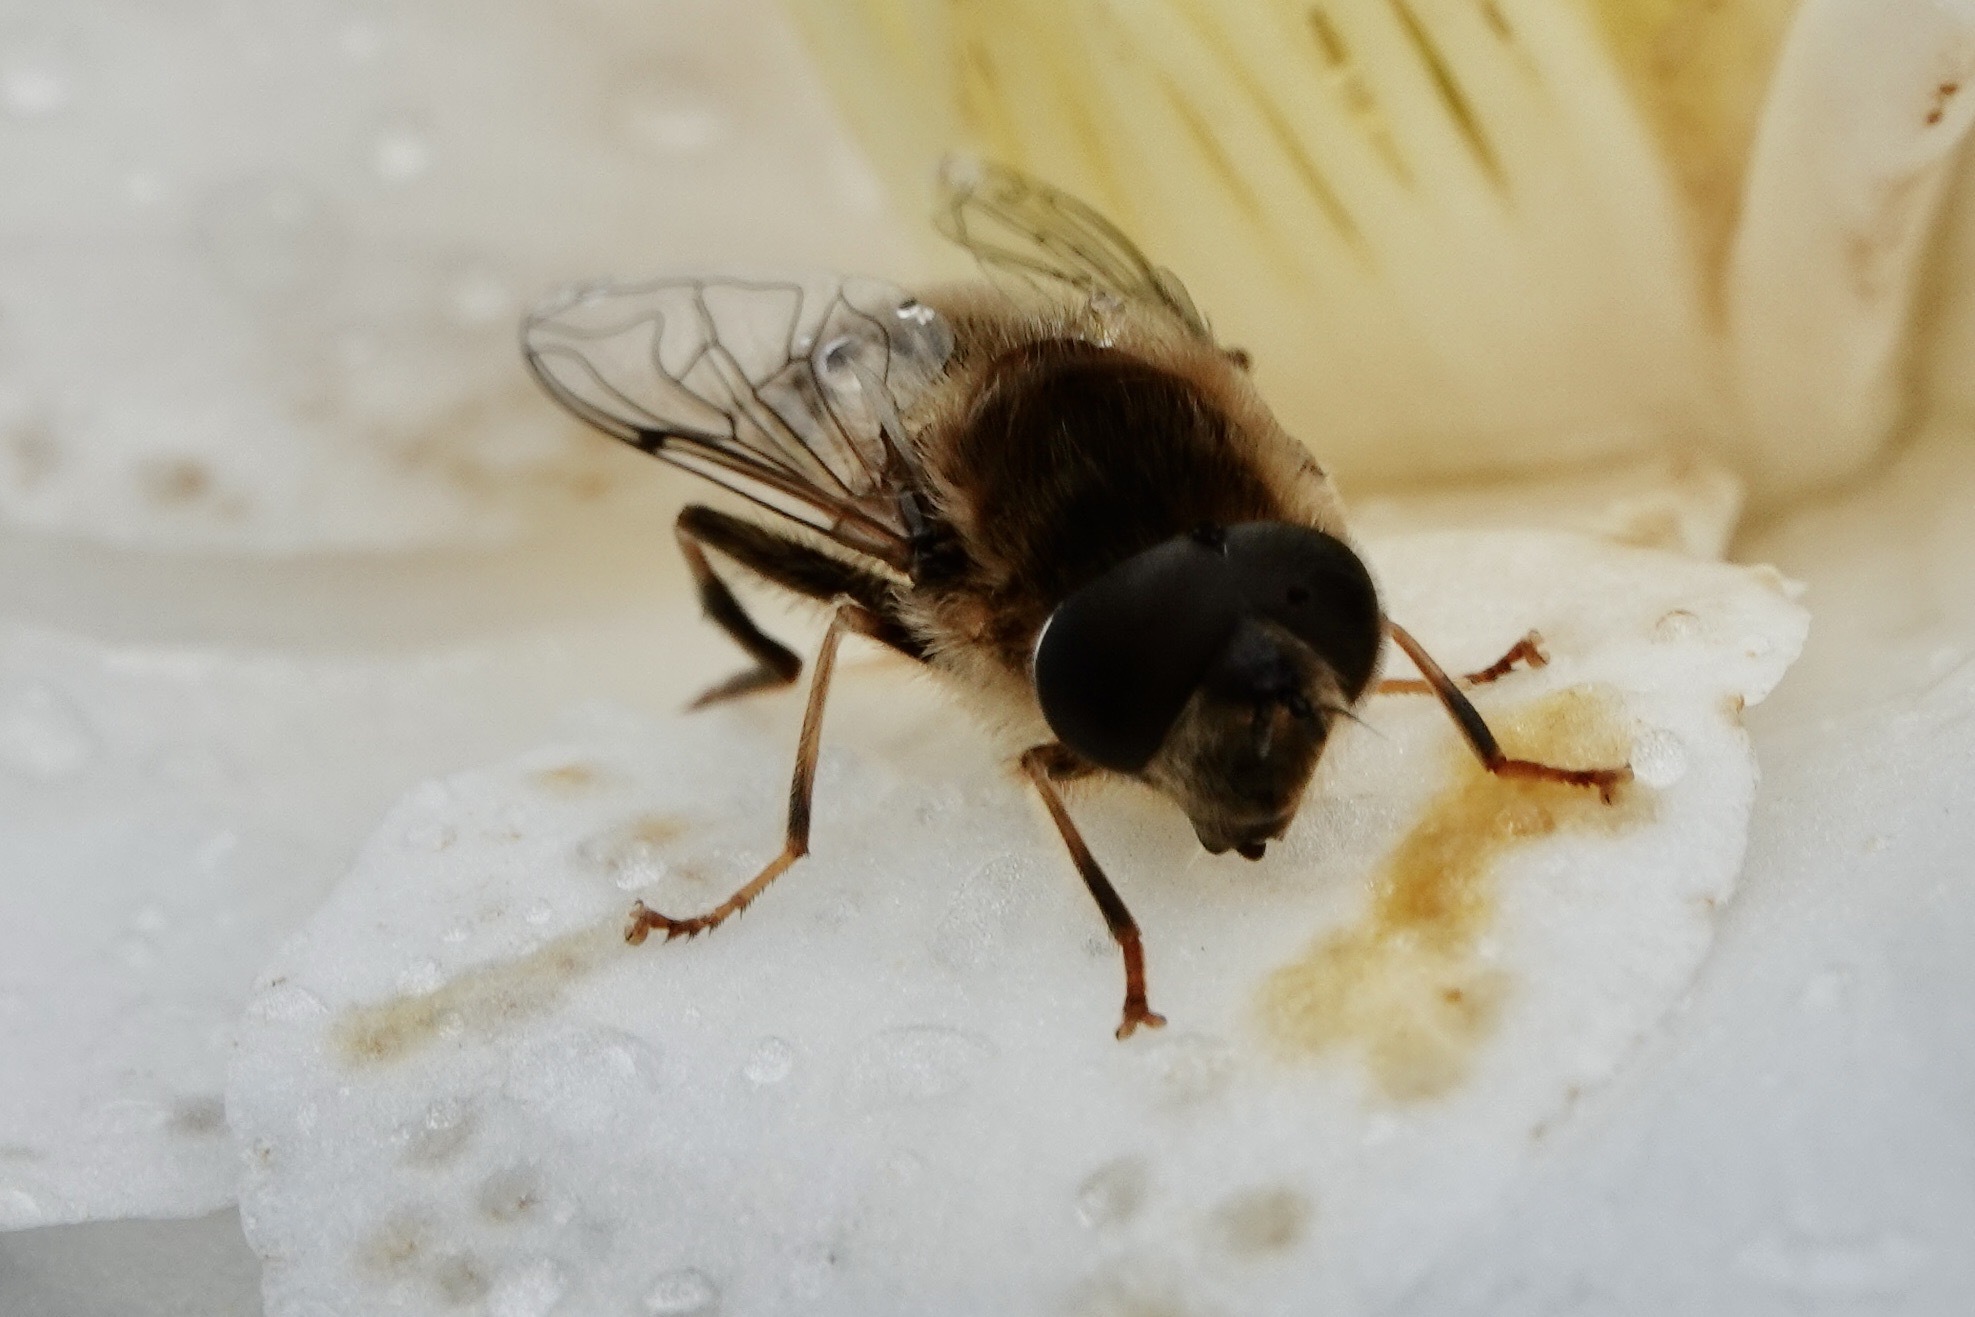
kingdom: Animalia
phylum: Arthropoda
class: Insecta
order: Diptera
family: Syrphidae
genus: Eristalis
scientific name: Eristalis pertinax
